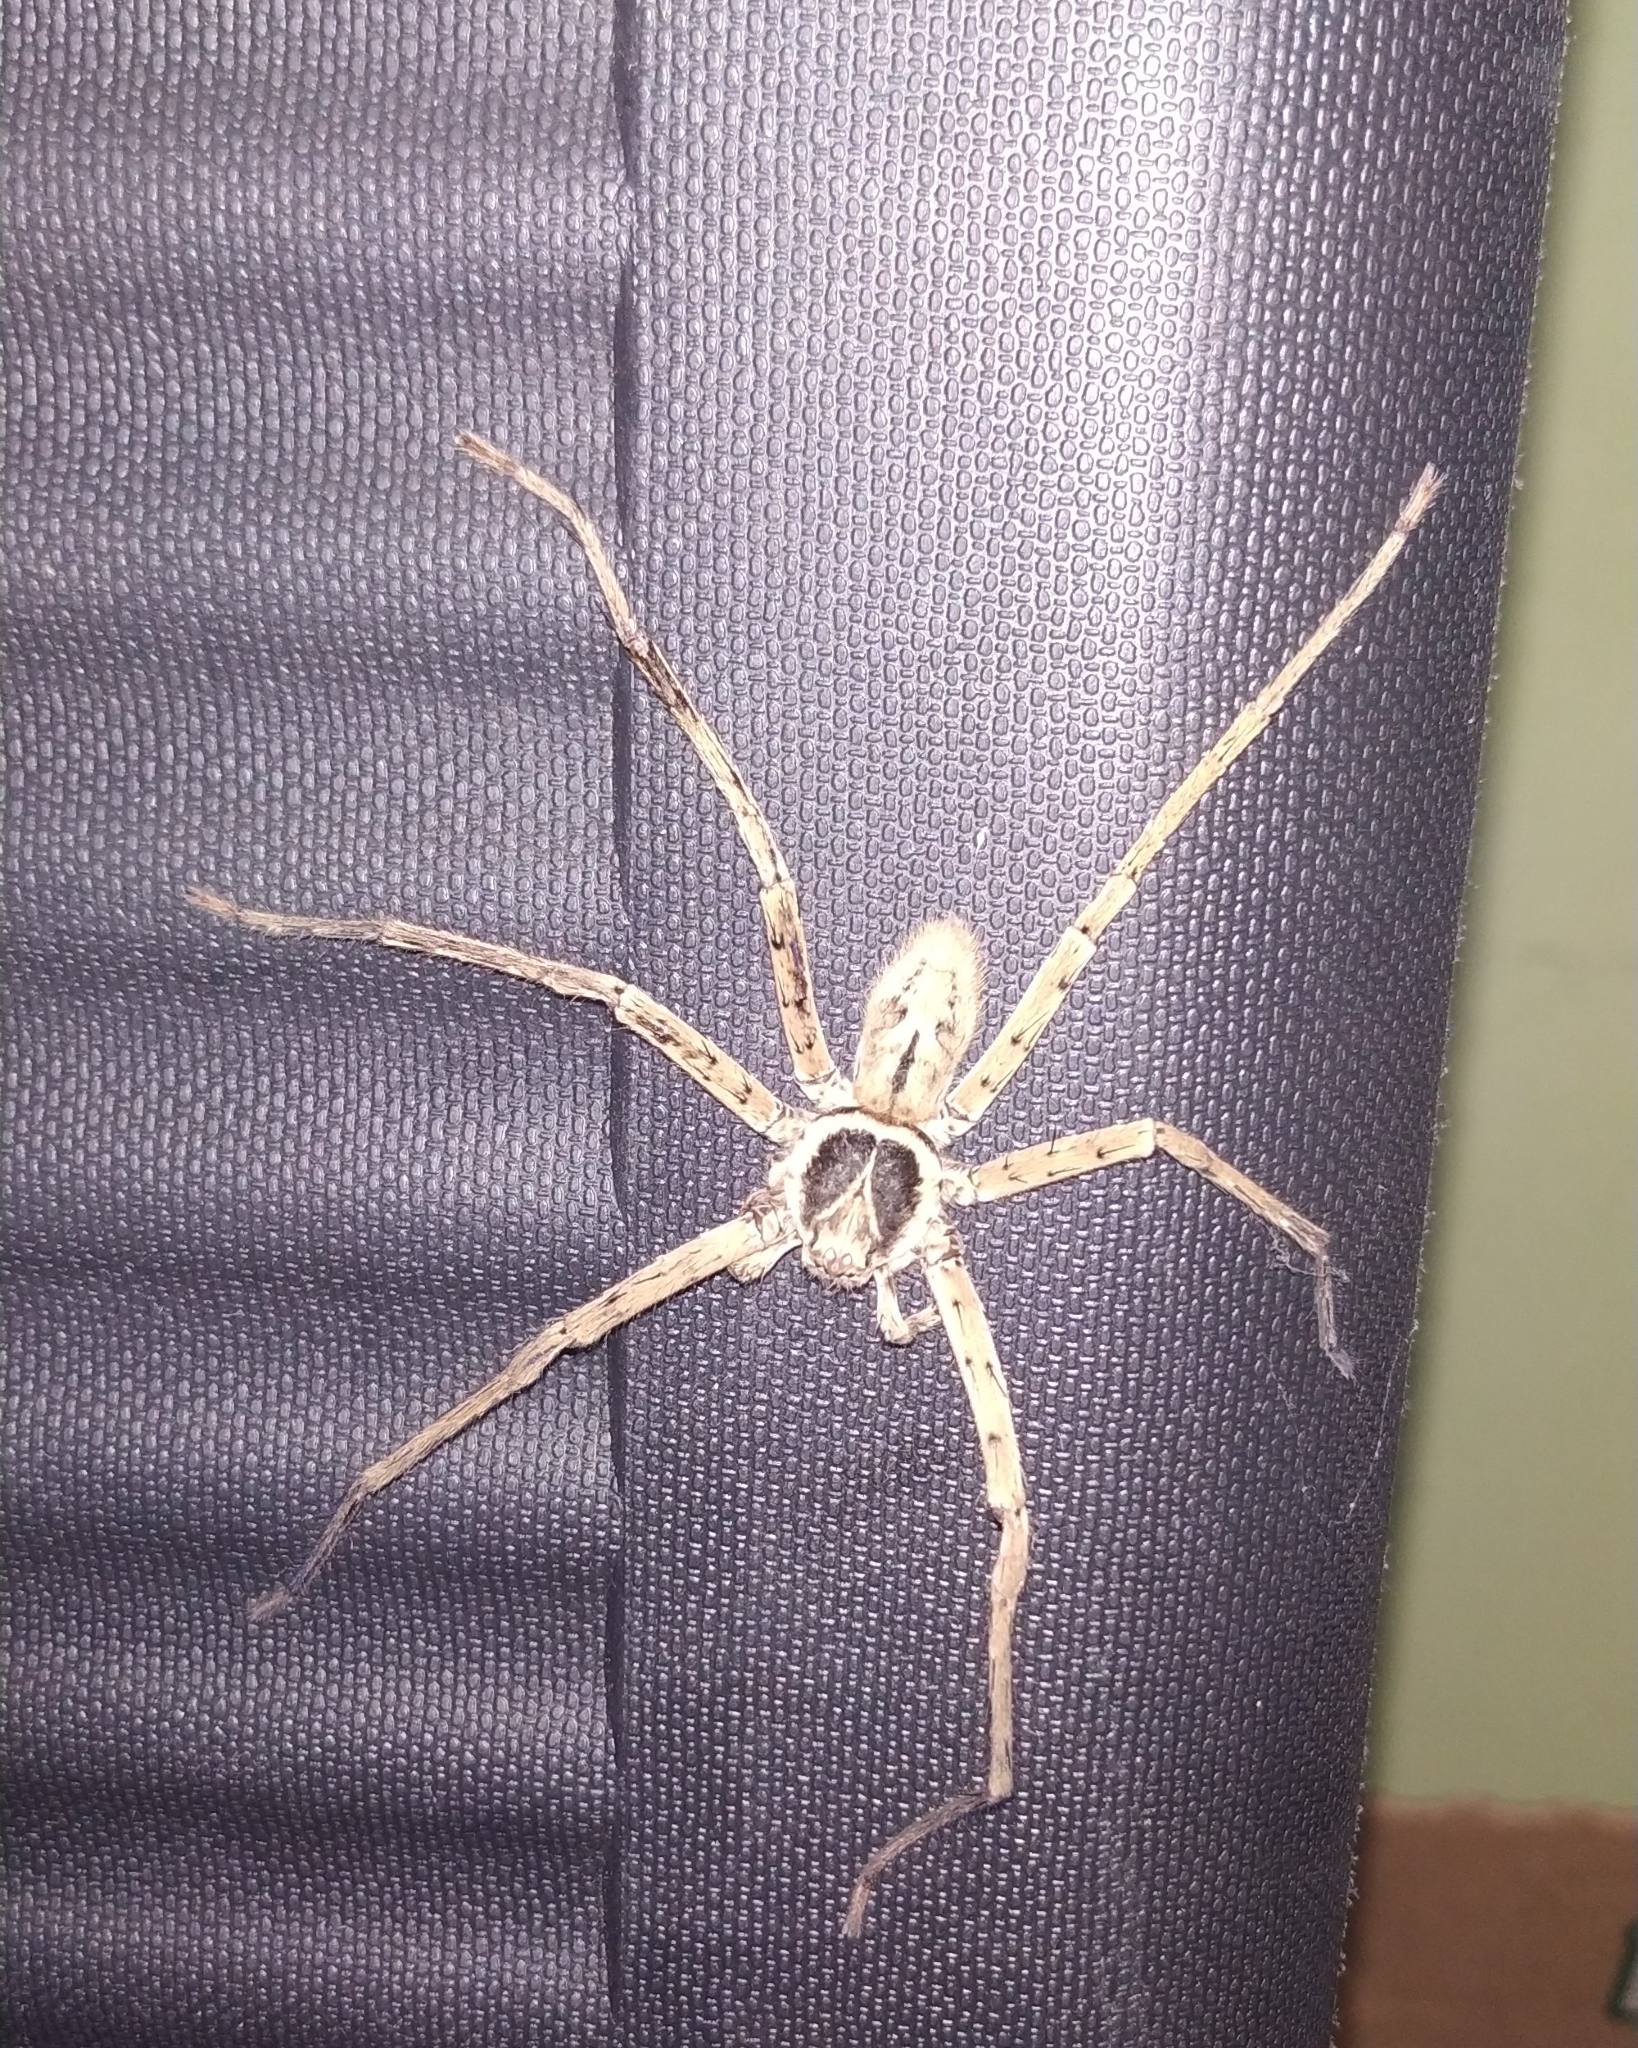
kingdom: Animalia
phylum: Arthropoda
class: Arachnida
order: Araneae
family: Sparassidae
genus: Heteropoda
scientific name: Heteropoda venatoria
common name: Huntsman spider
